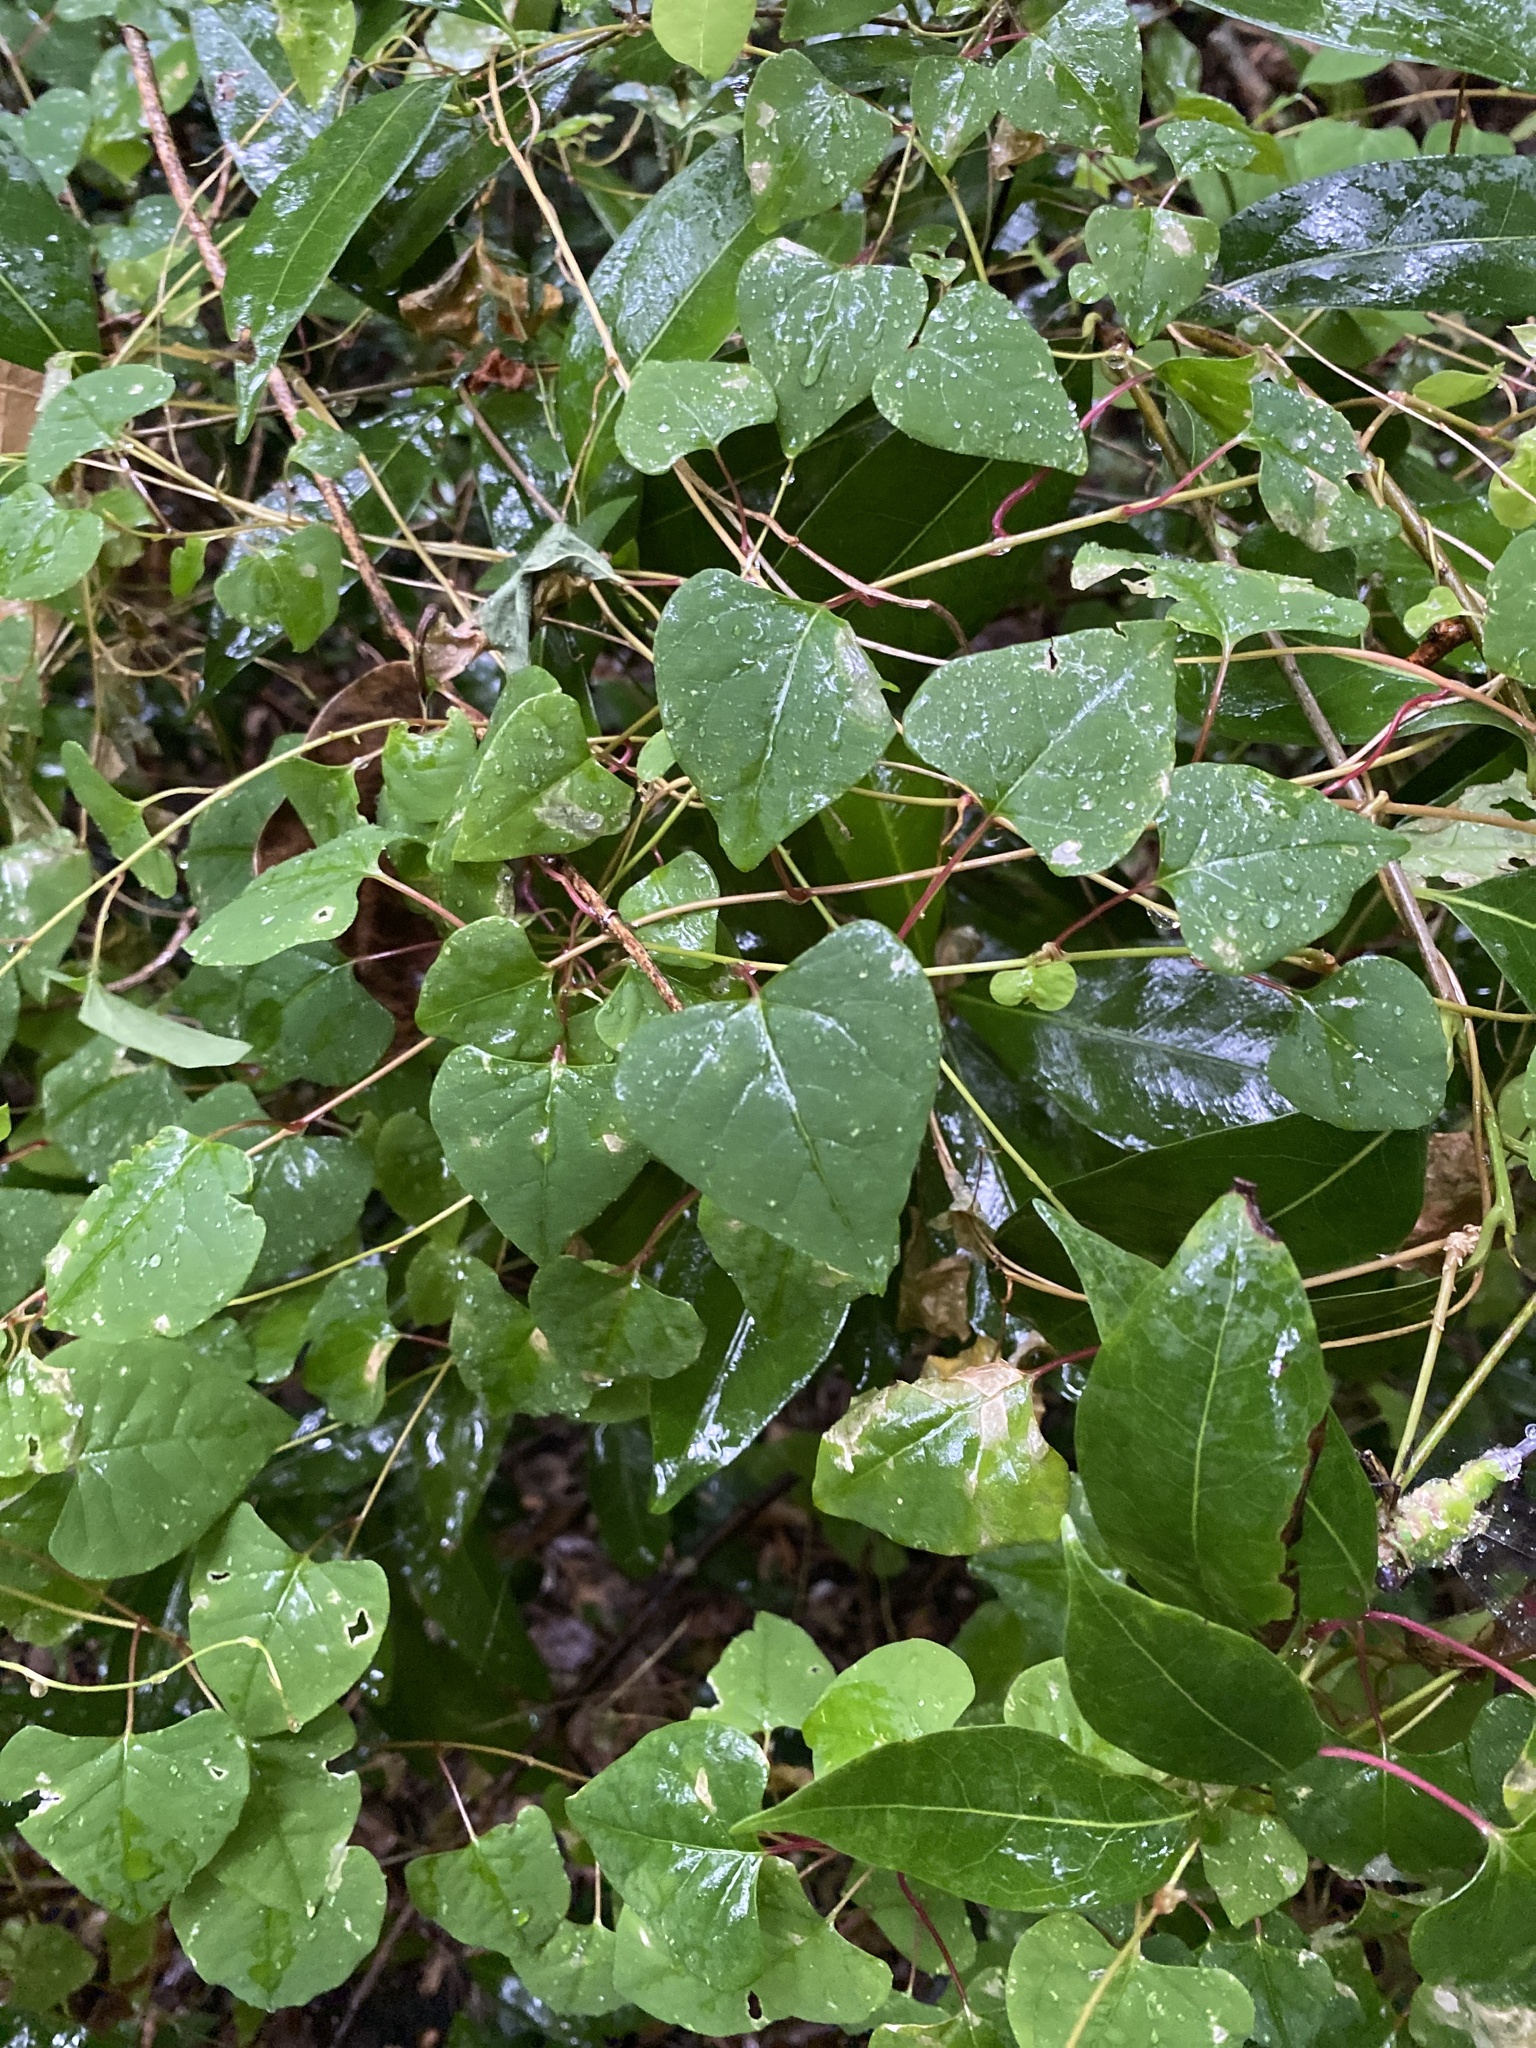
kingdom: Plantae
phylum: Tracheophyta
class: Magnoliopsida
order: Caryophyllales
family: Agdestidaceae
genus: Agdestis
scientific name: Agdestis clematidea
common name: Rockroot
